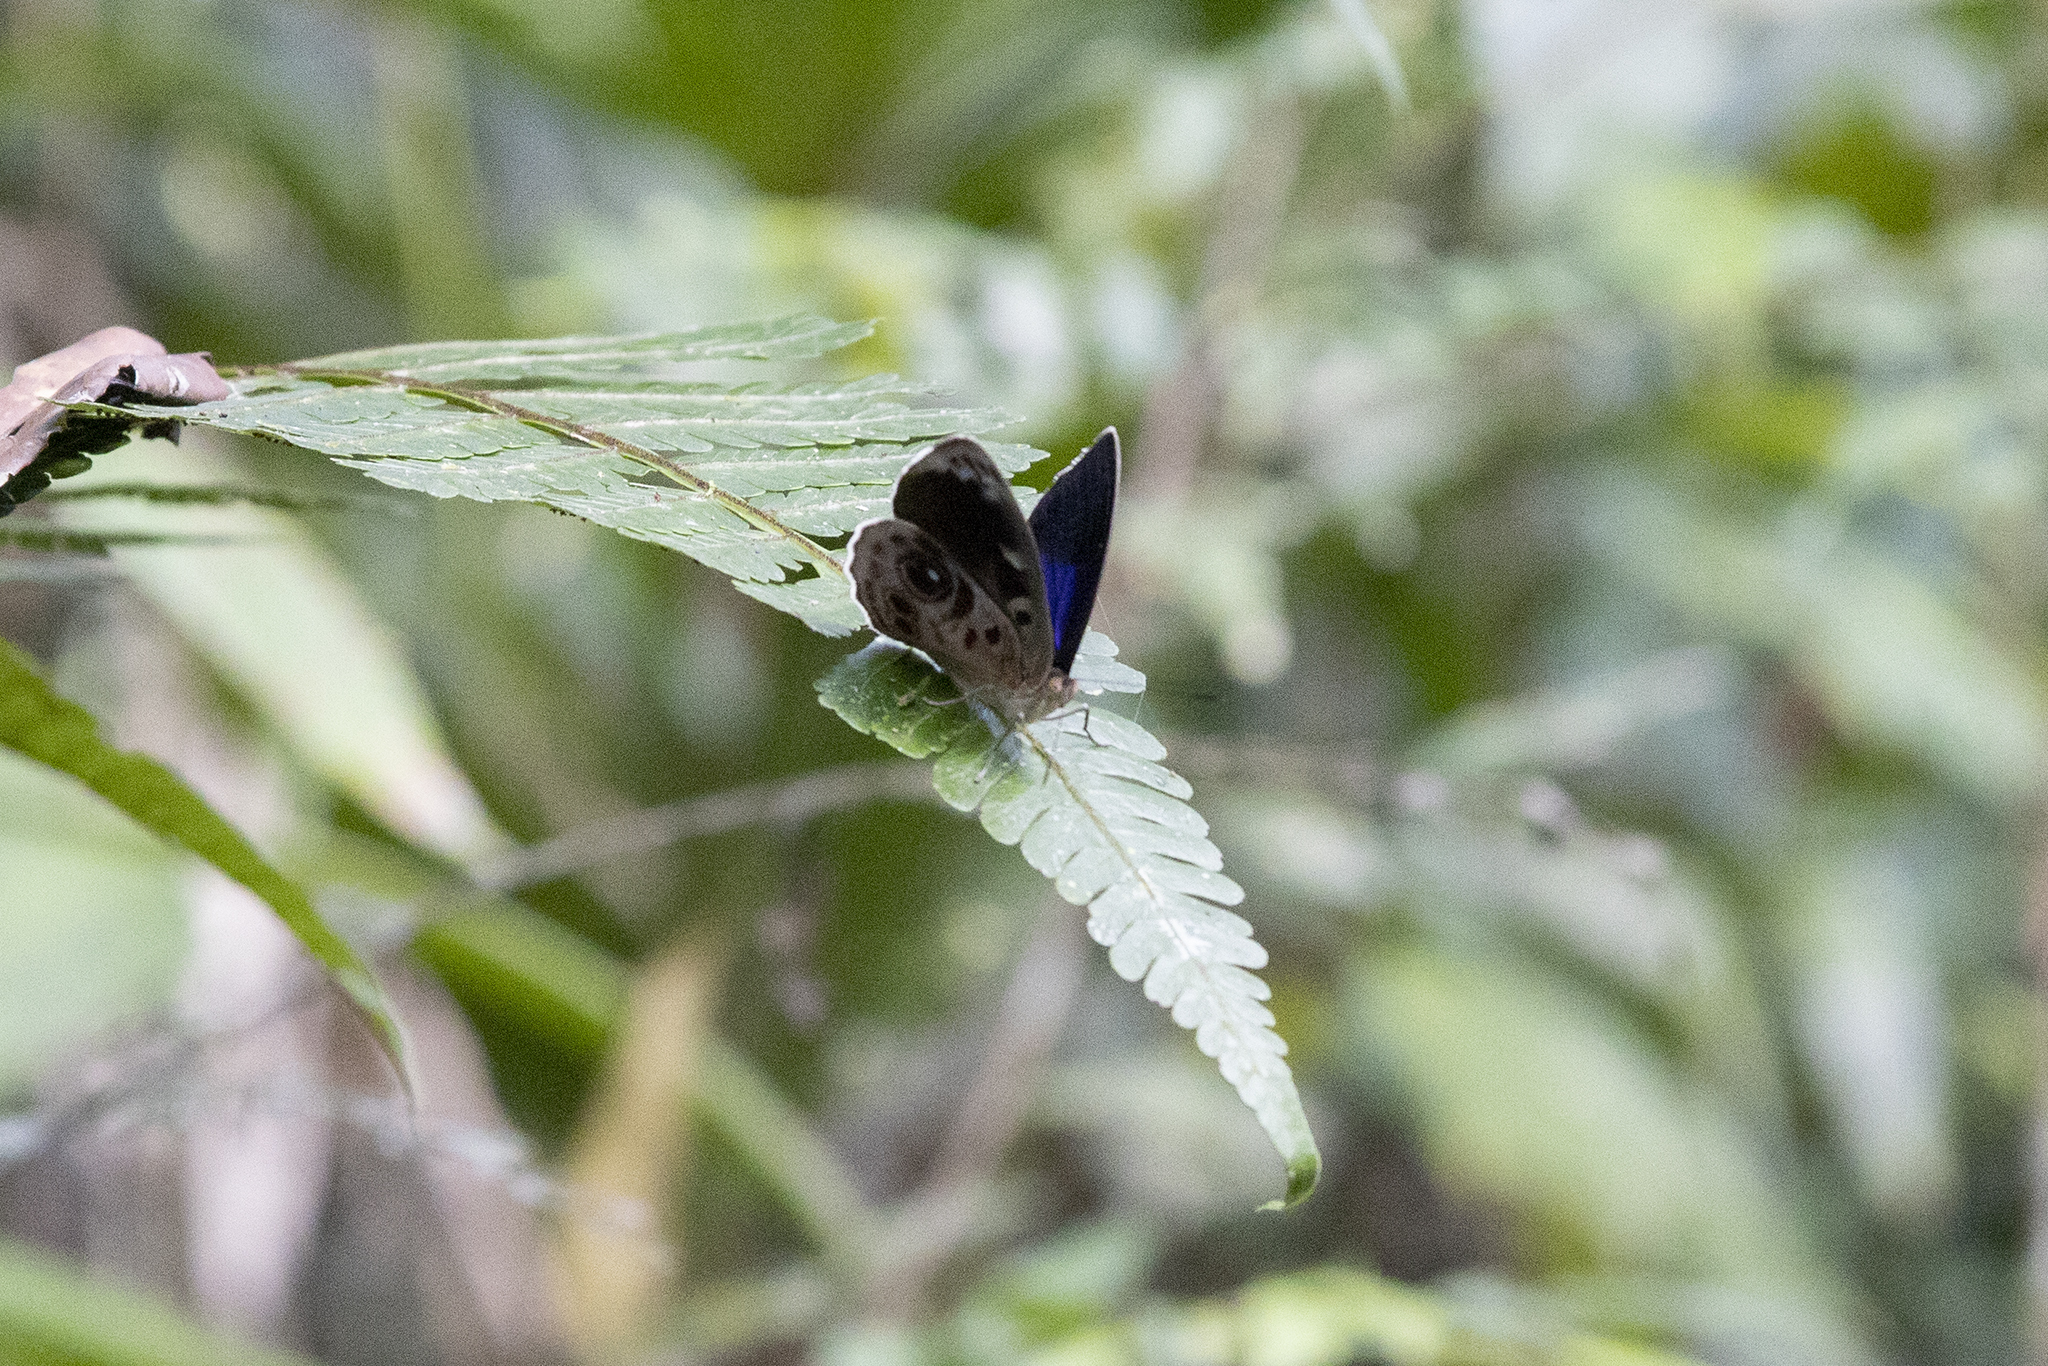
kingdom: Animalia
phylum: Arthropoda
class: Insecta
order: Lepidoptera
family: Nymphalidae
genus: Eunica
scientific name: Eunica amelia
